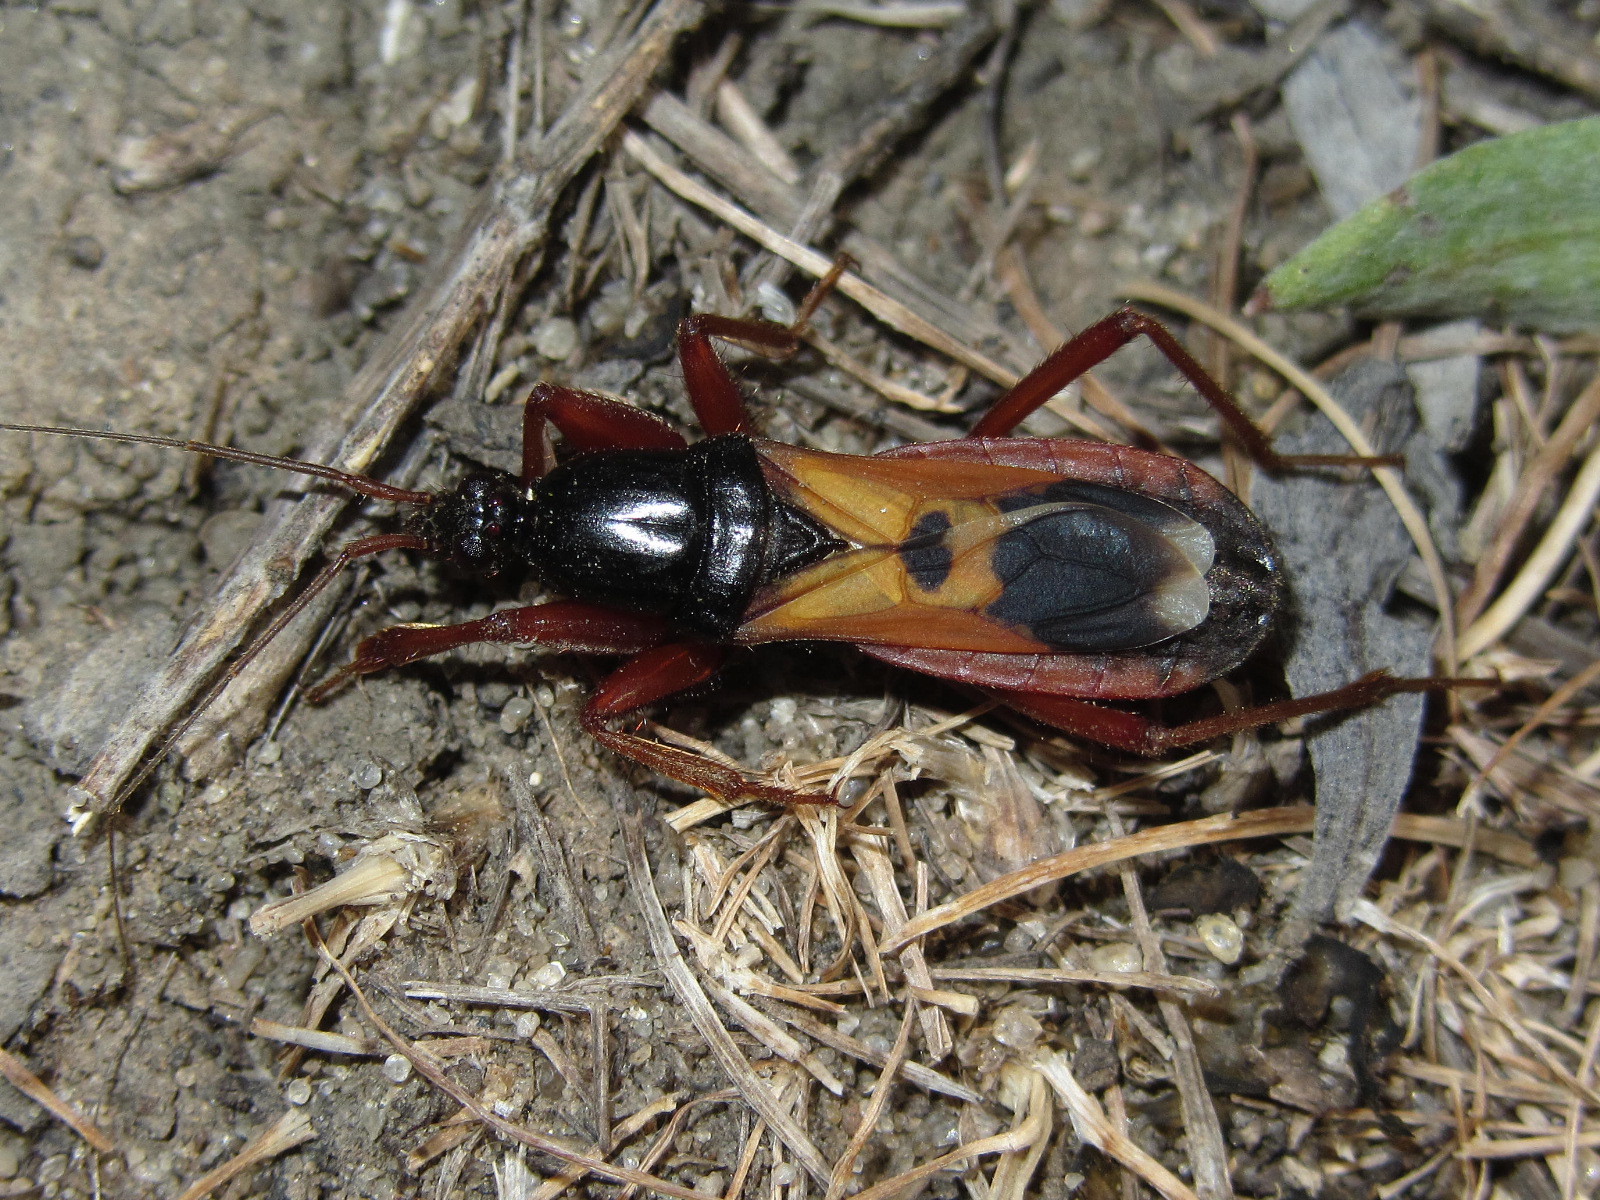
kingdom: Animalia
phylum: Arthropoda
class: Insecta
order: Hemiptera
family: Reduviidae
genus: Ectomocoris
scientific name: Ectomocoris ululans
